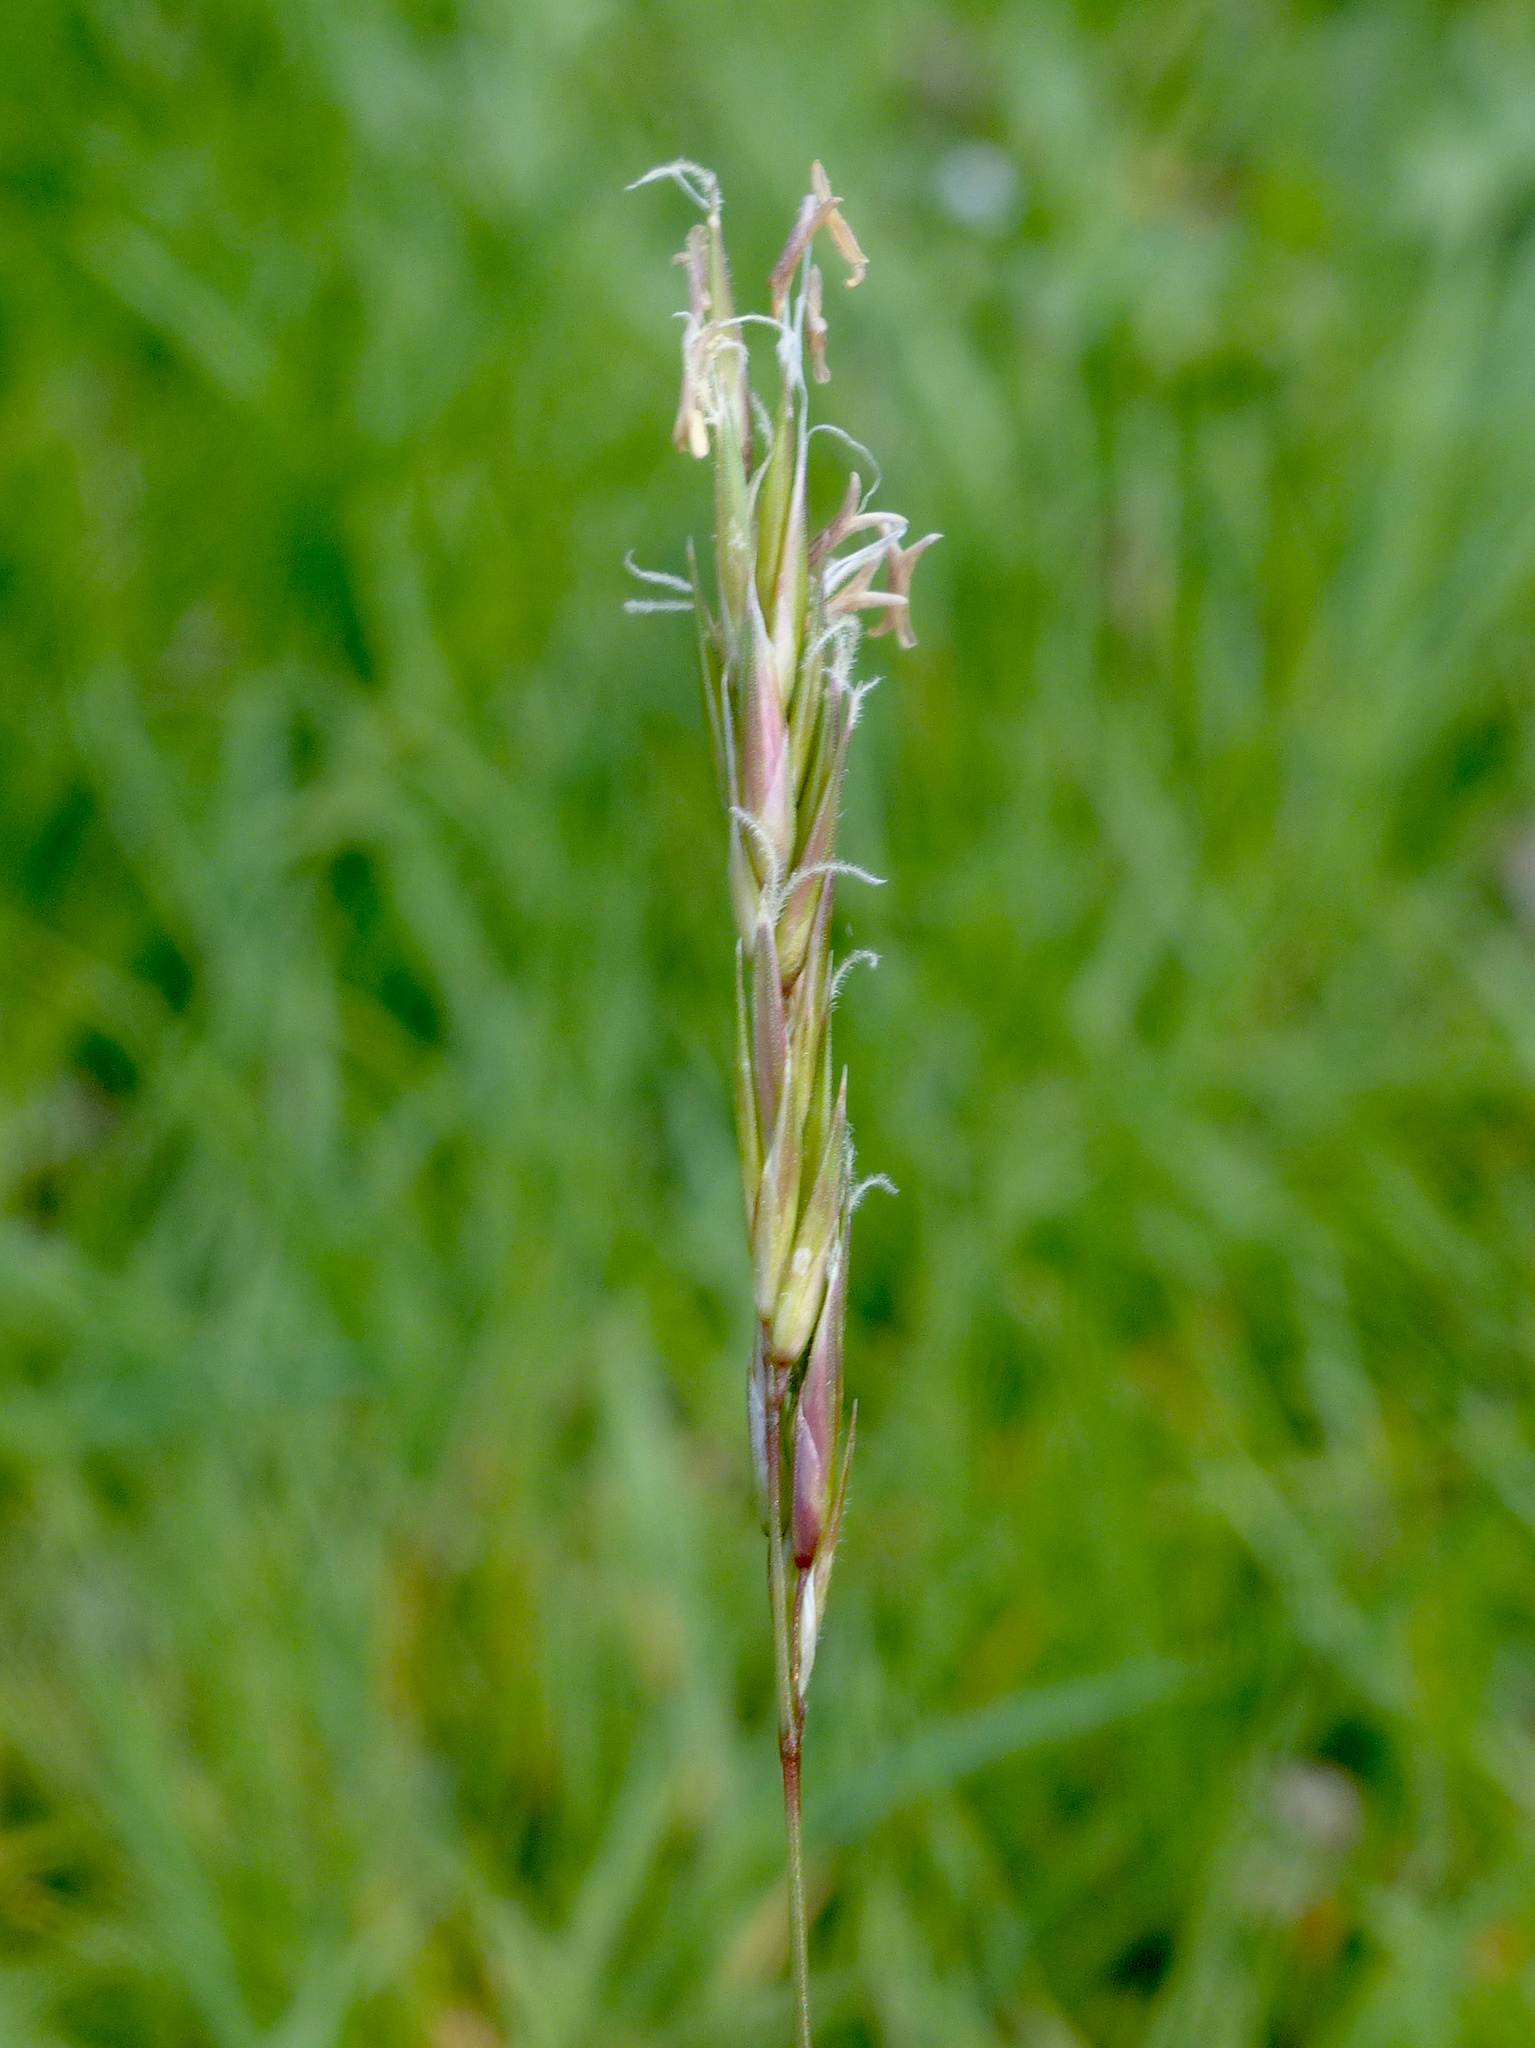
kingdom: Plantae
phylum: Tracheophyta
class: Liliopsida
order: Poales
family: Poaceae
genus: Anthoxanthum
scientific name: Anthoxanthum odoratum
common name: Sweet vernalgrass
